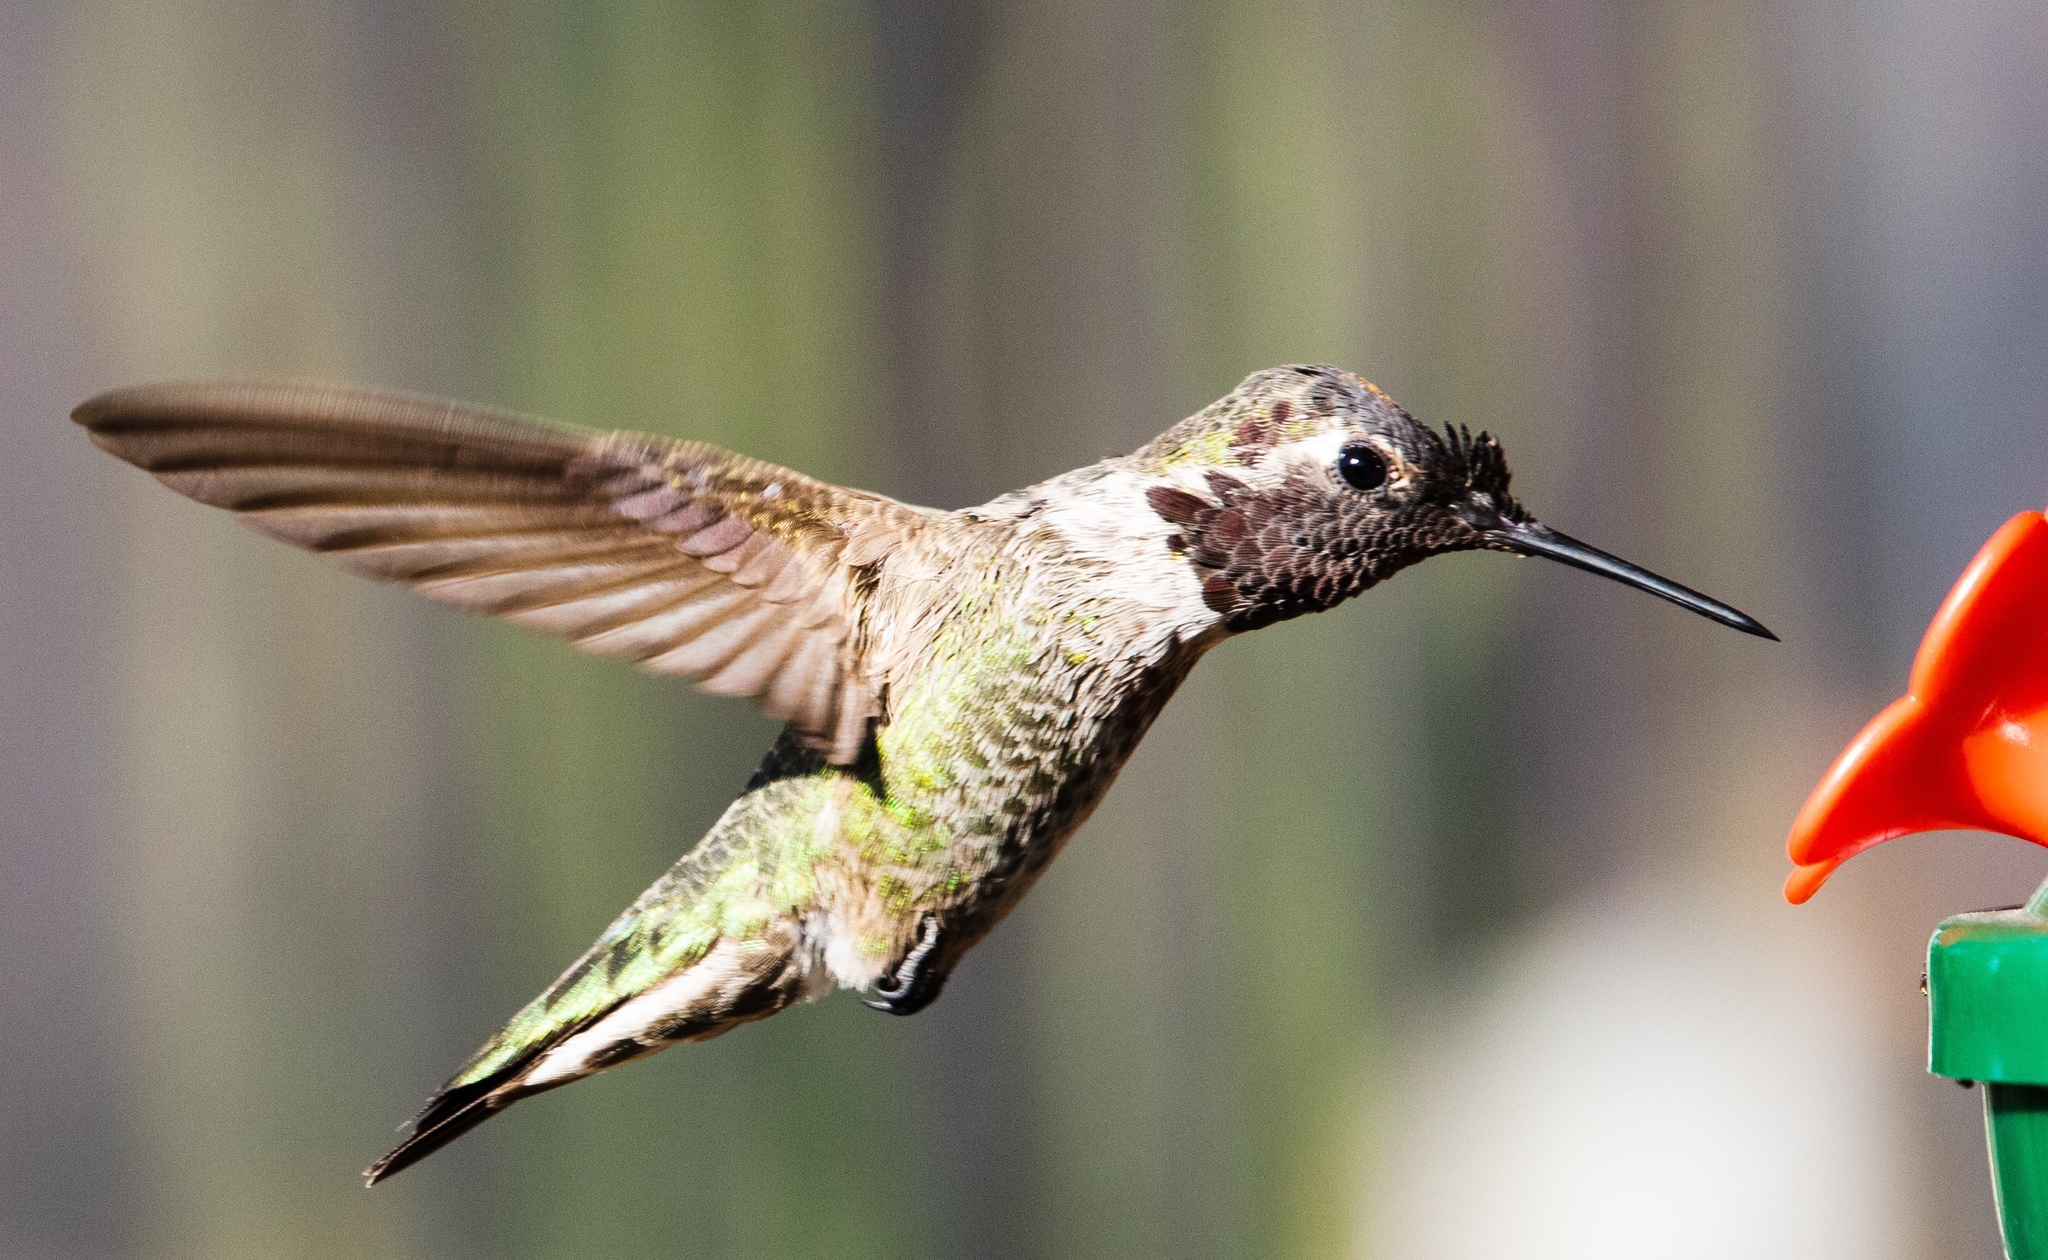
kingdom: Animalia
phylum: Chordata
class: Aves
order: Apodiformes
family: Trochilidae
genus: Calypte
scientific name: Calypte anna
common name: Anna's hummingbird
